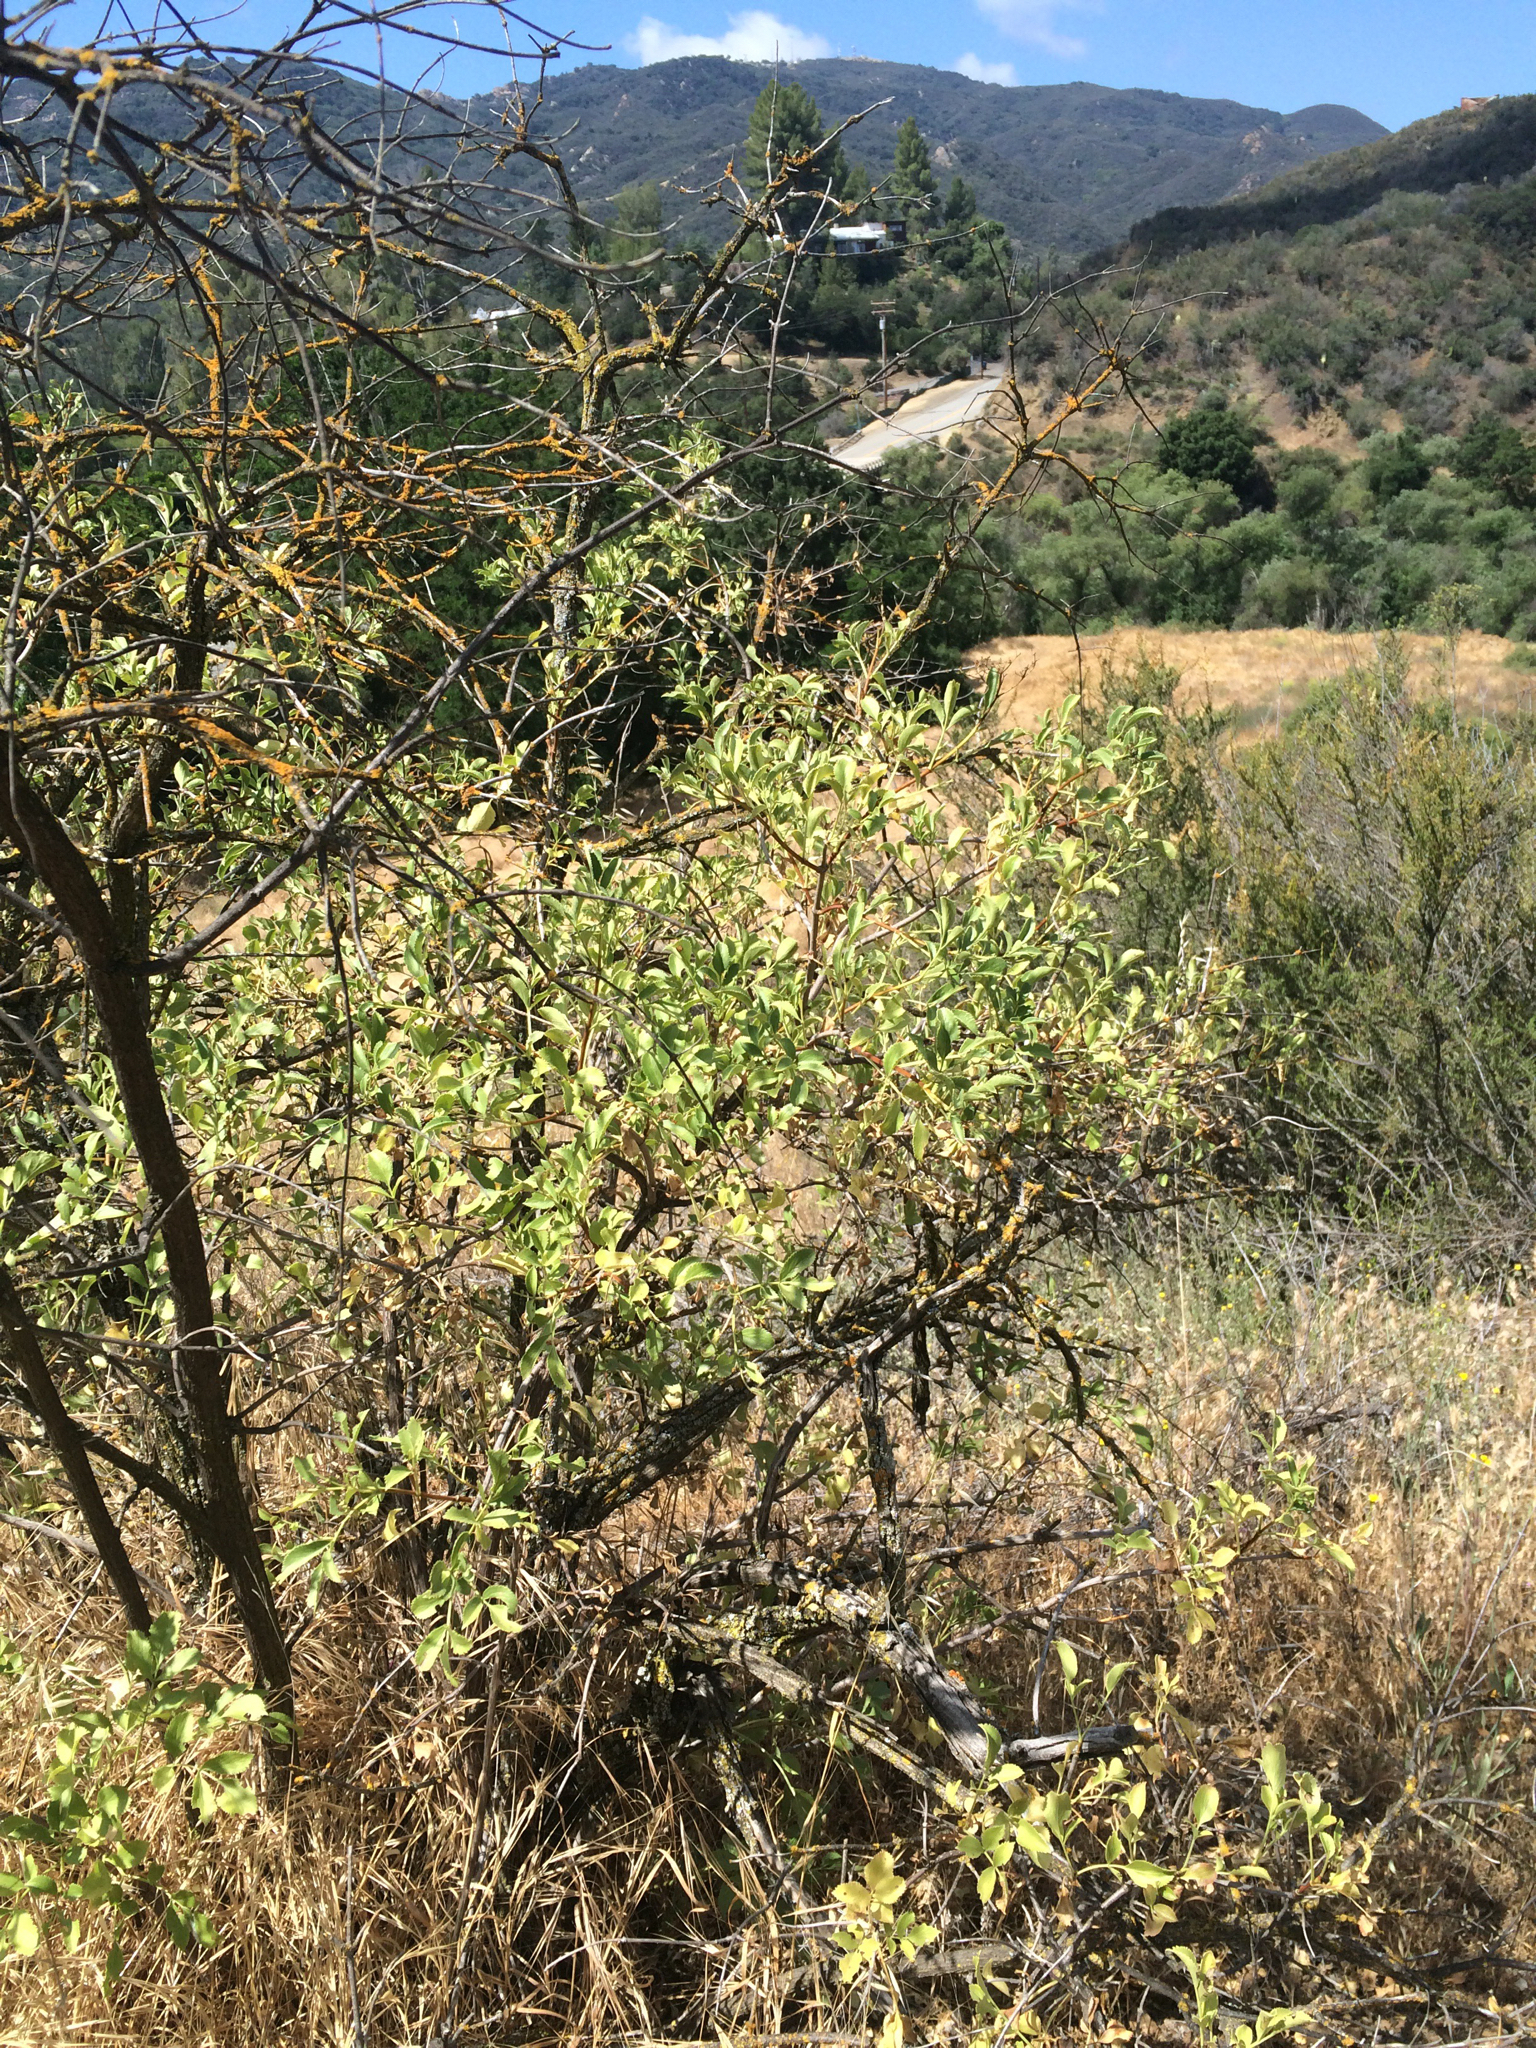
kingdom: Plantae
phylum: Tracheophyta
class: Magnoliopsida
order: Dipsacales
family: Viburnaceae
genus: Sambucus
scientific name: Sambucus cerulea
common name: Blue elder
